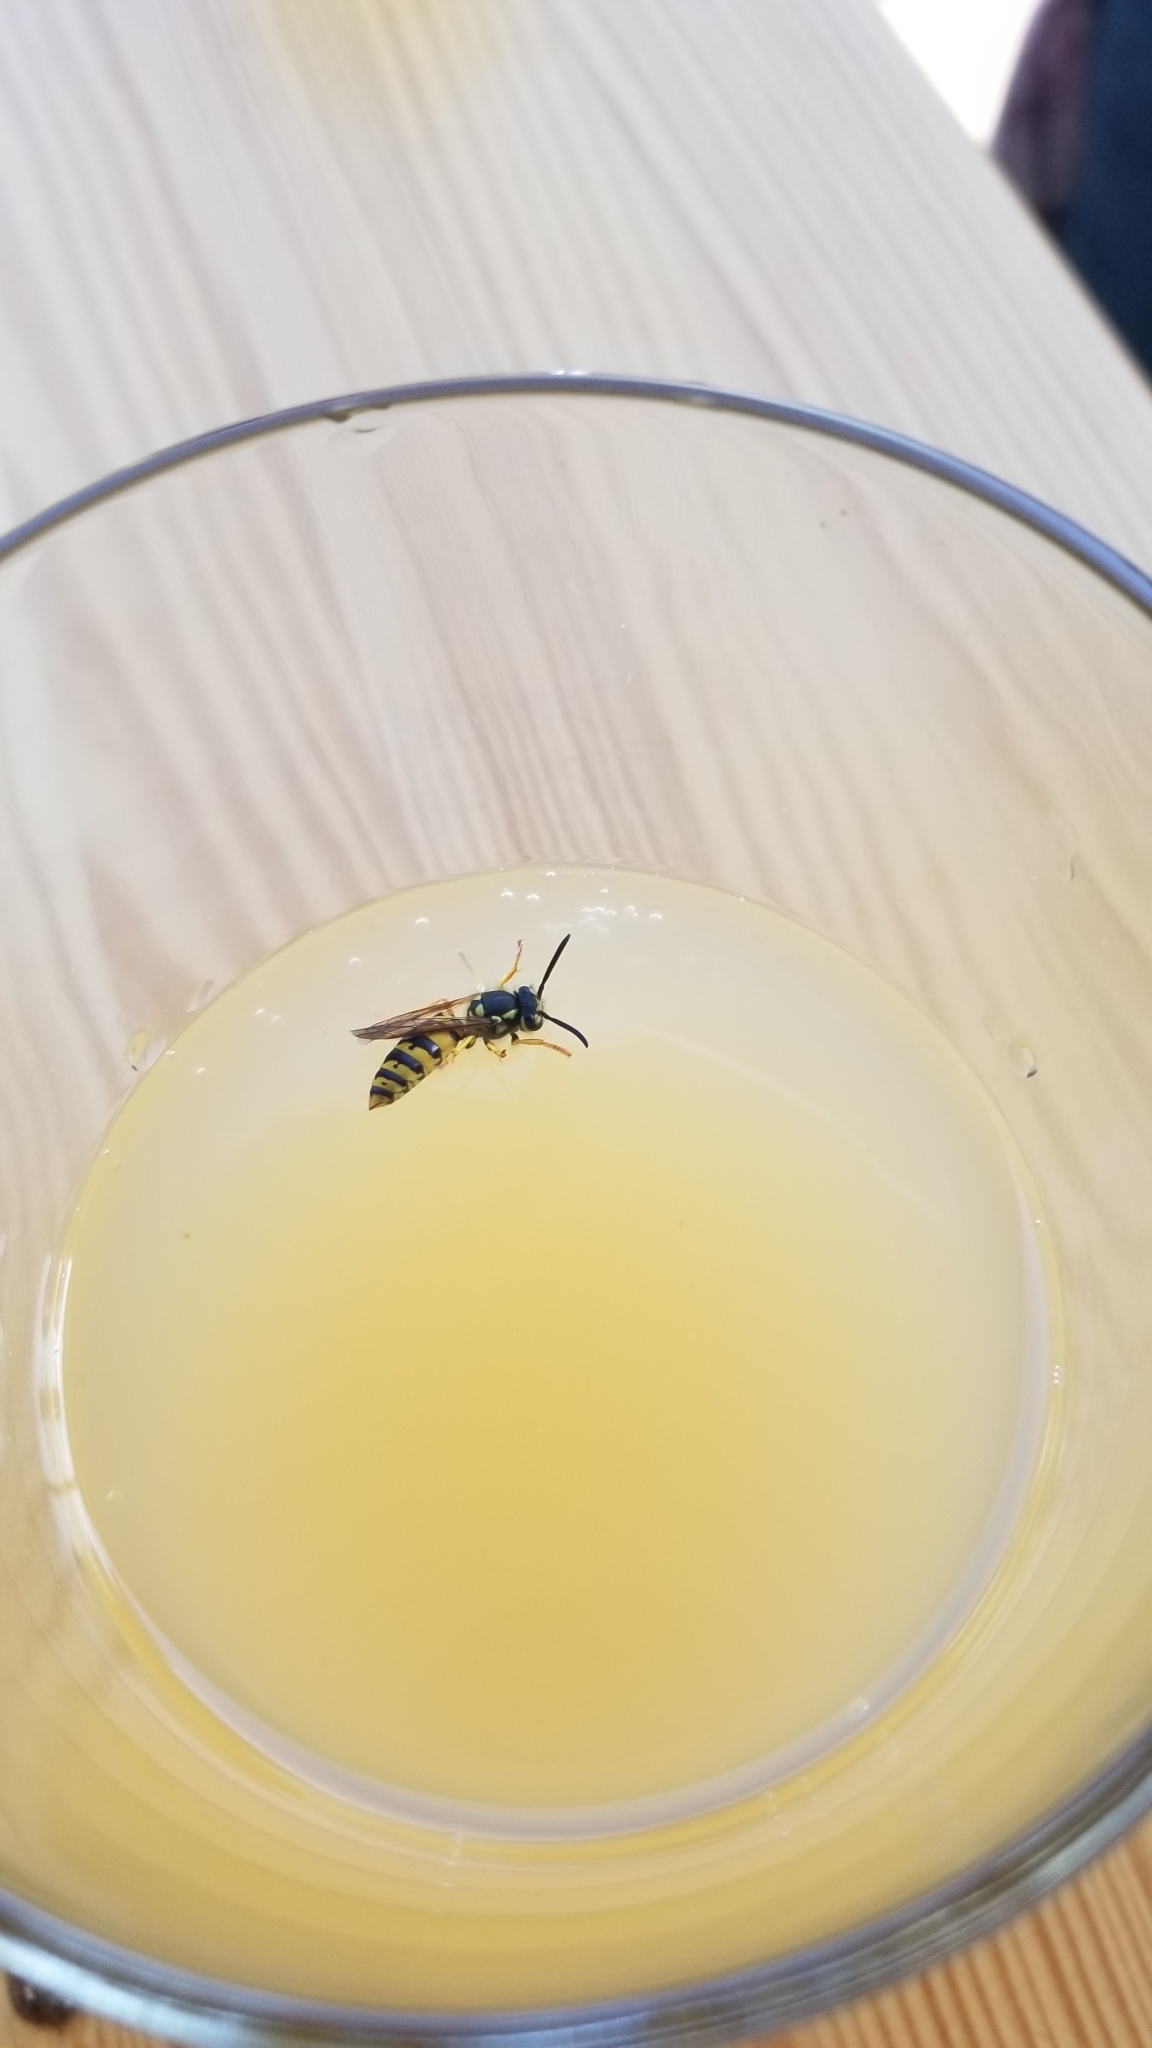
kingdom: Animalia
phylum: Arthropoda
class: Insecta
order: Hymenoptera
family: Vespidae
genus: Vespula
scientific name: Vespula
